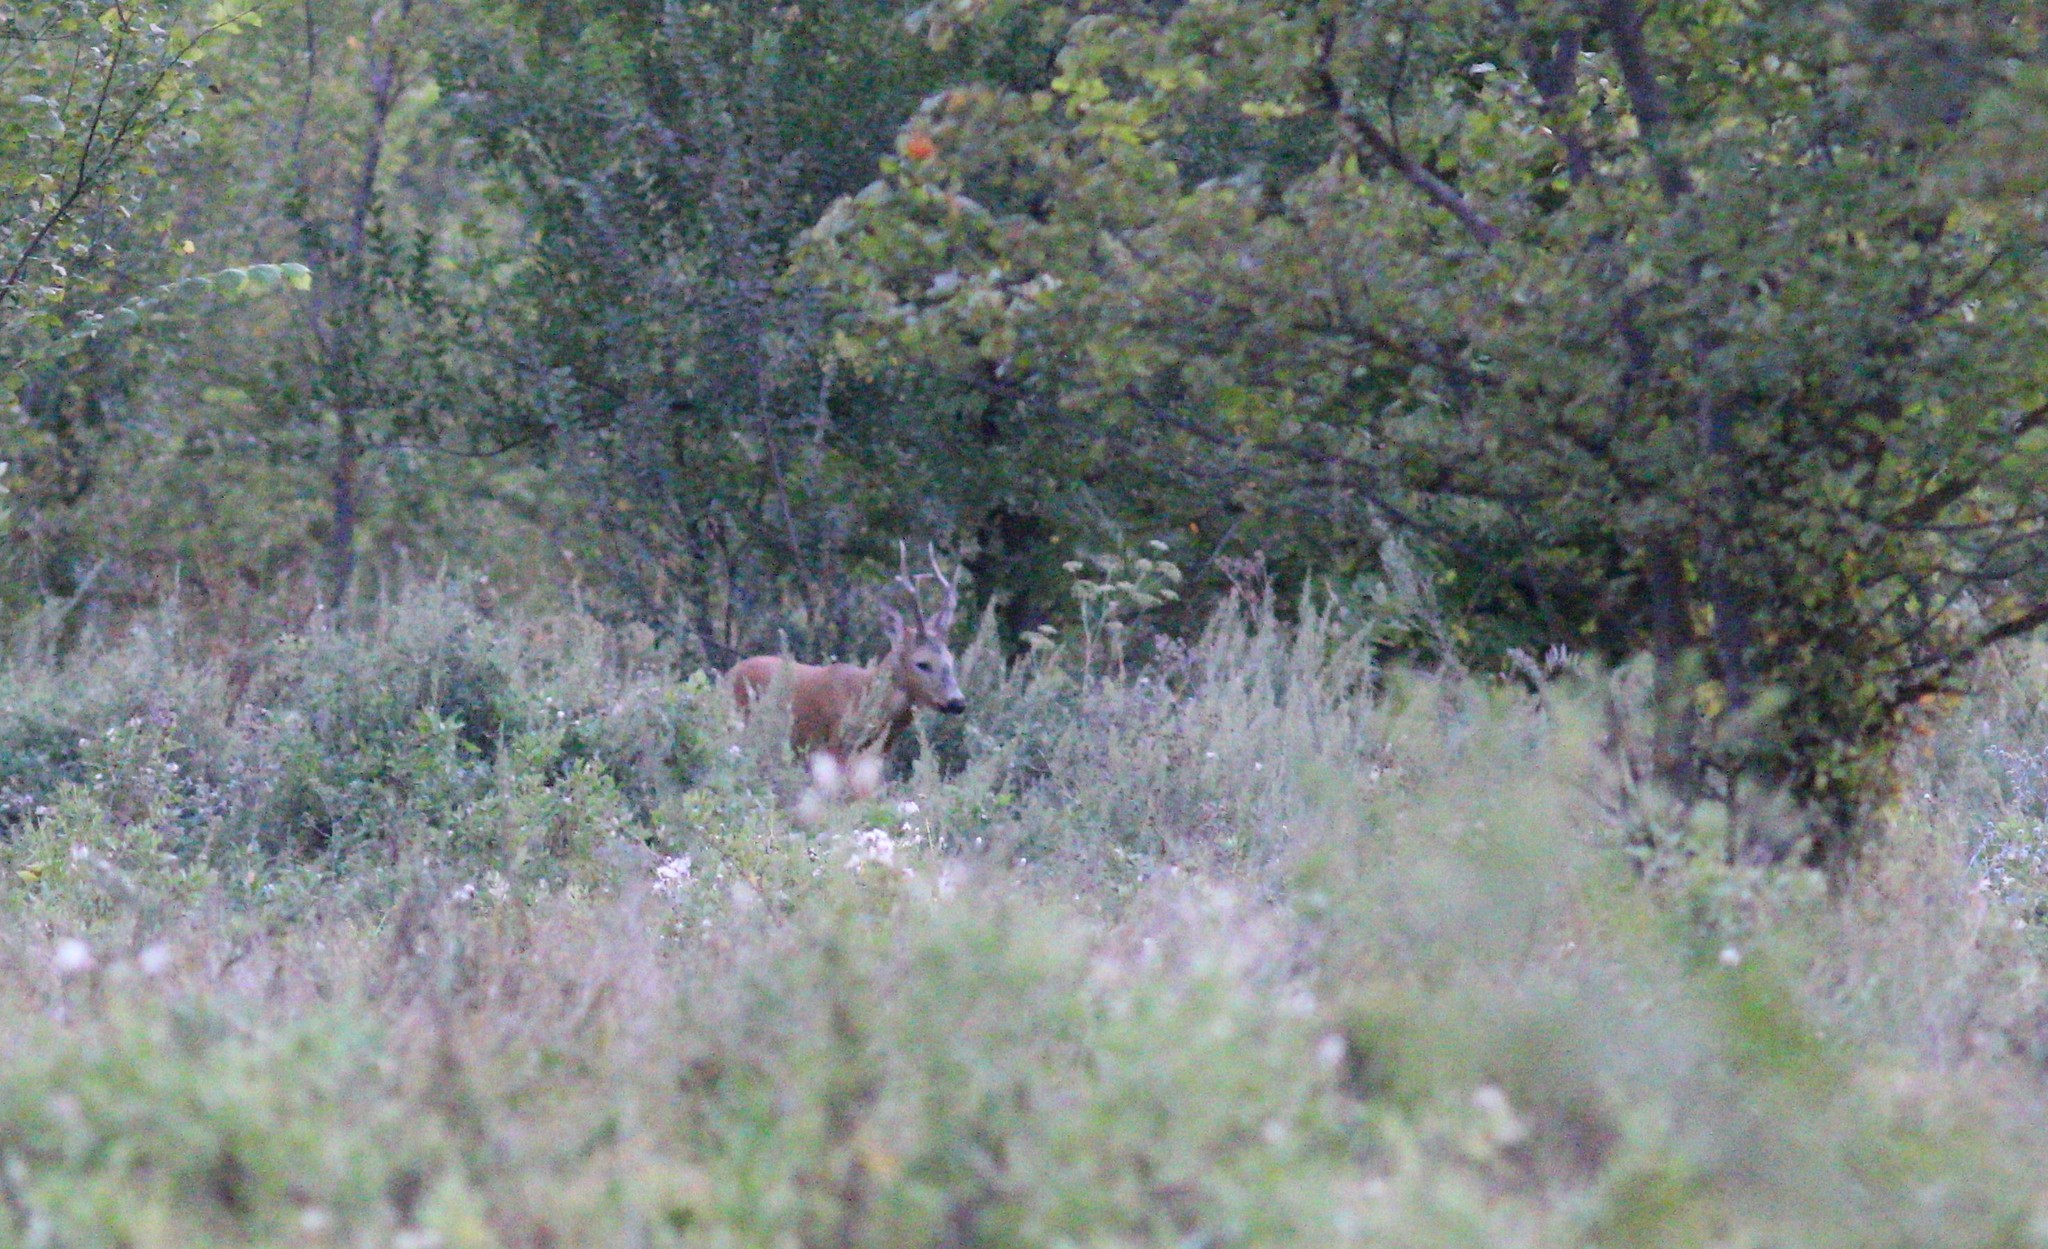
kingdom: Animalia
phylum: Chordata
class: Mammalia
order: Artiodactyla
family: Cervidae
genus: Capreolus
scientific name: Capreolus pygargus
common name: Siberian roe
